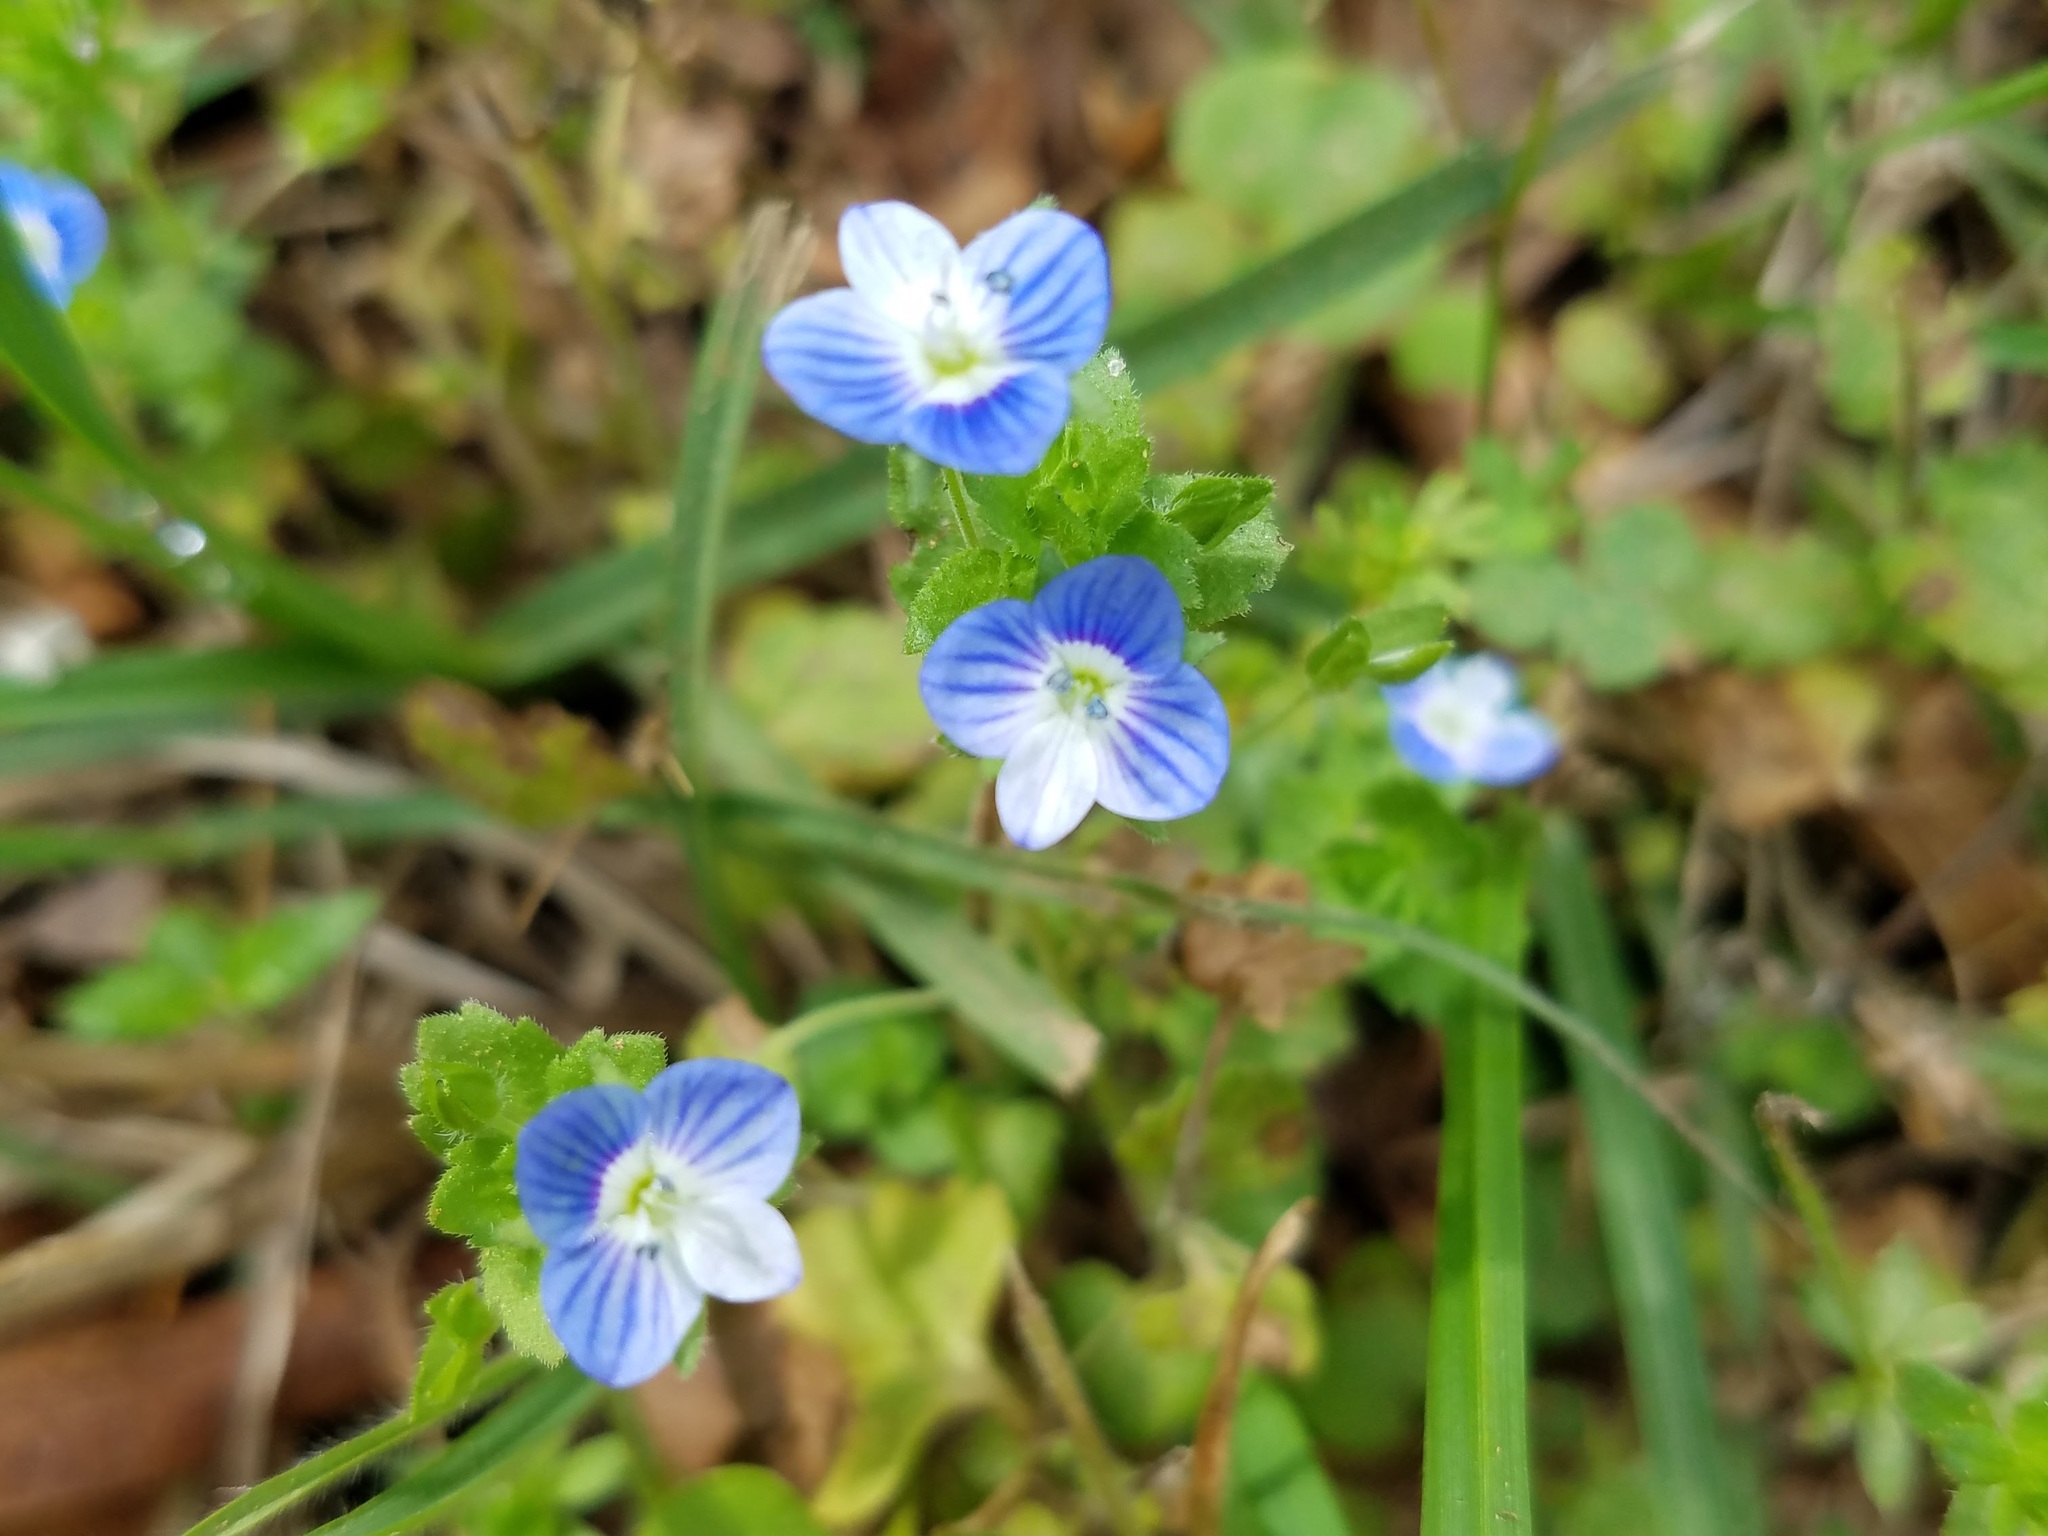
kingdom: Plantae
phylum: Tracheophyta
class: Magnoliopsida
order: Lamiales
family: Plantaginaceae
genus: Veronica
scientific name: Veronica persica
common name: Common field-speedwell
